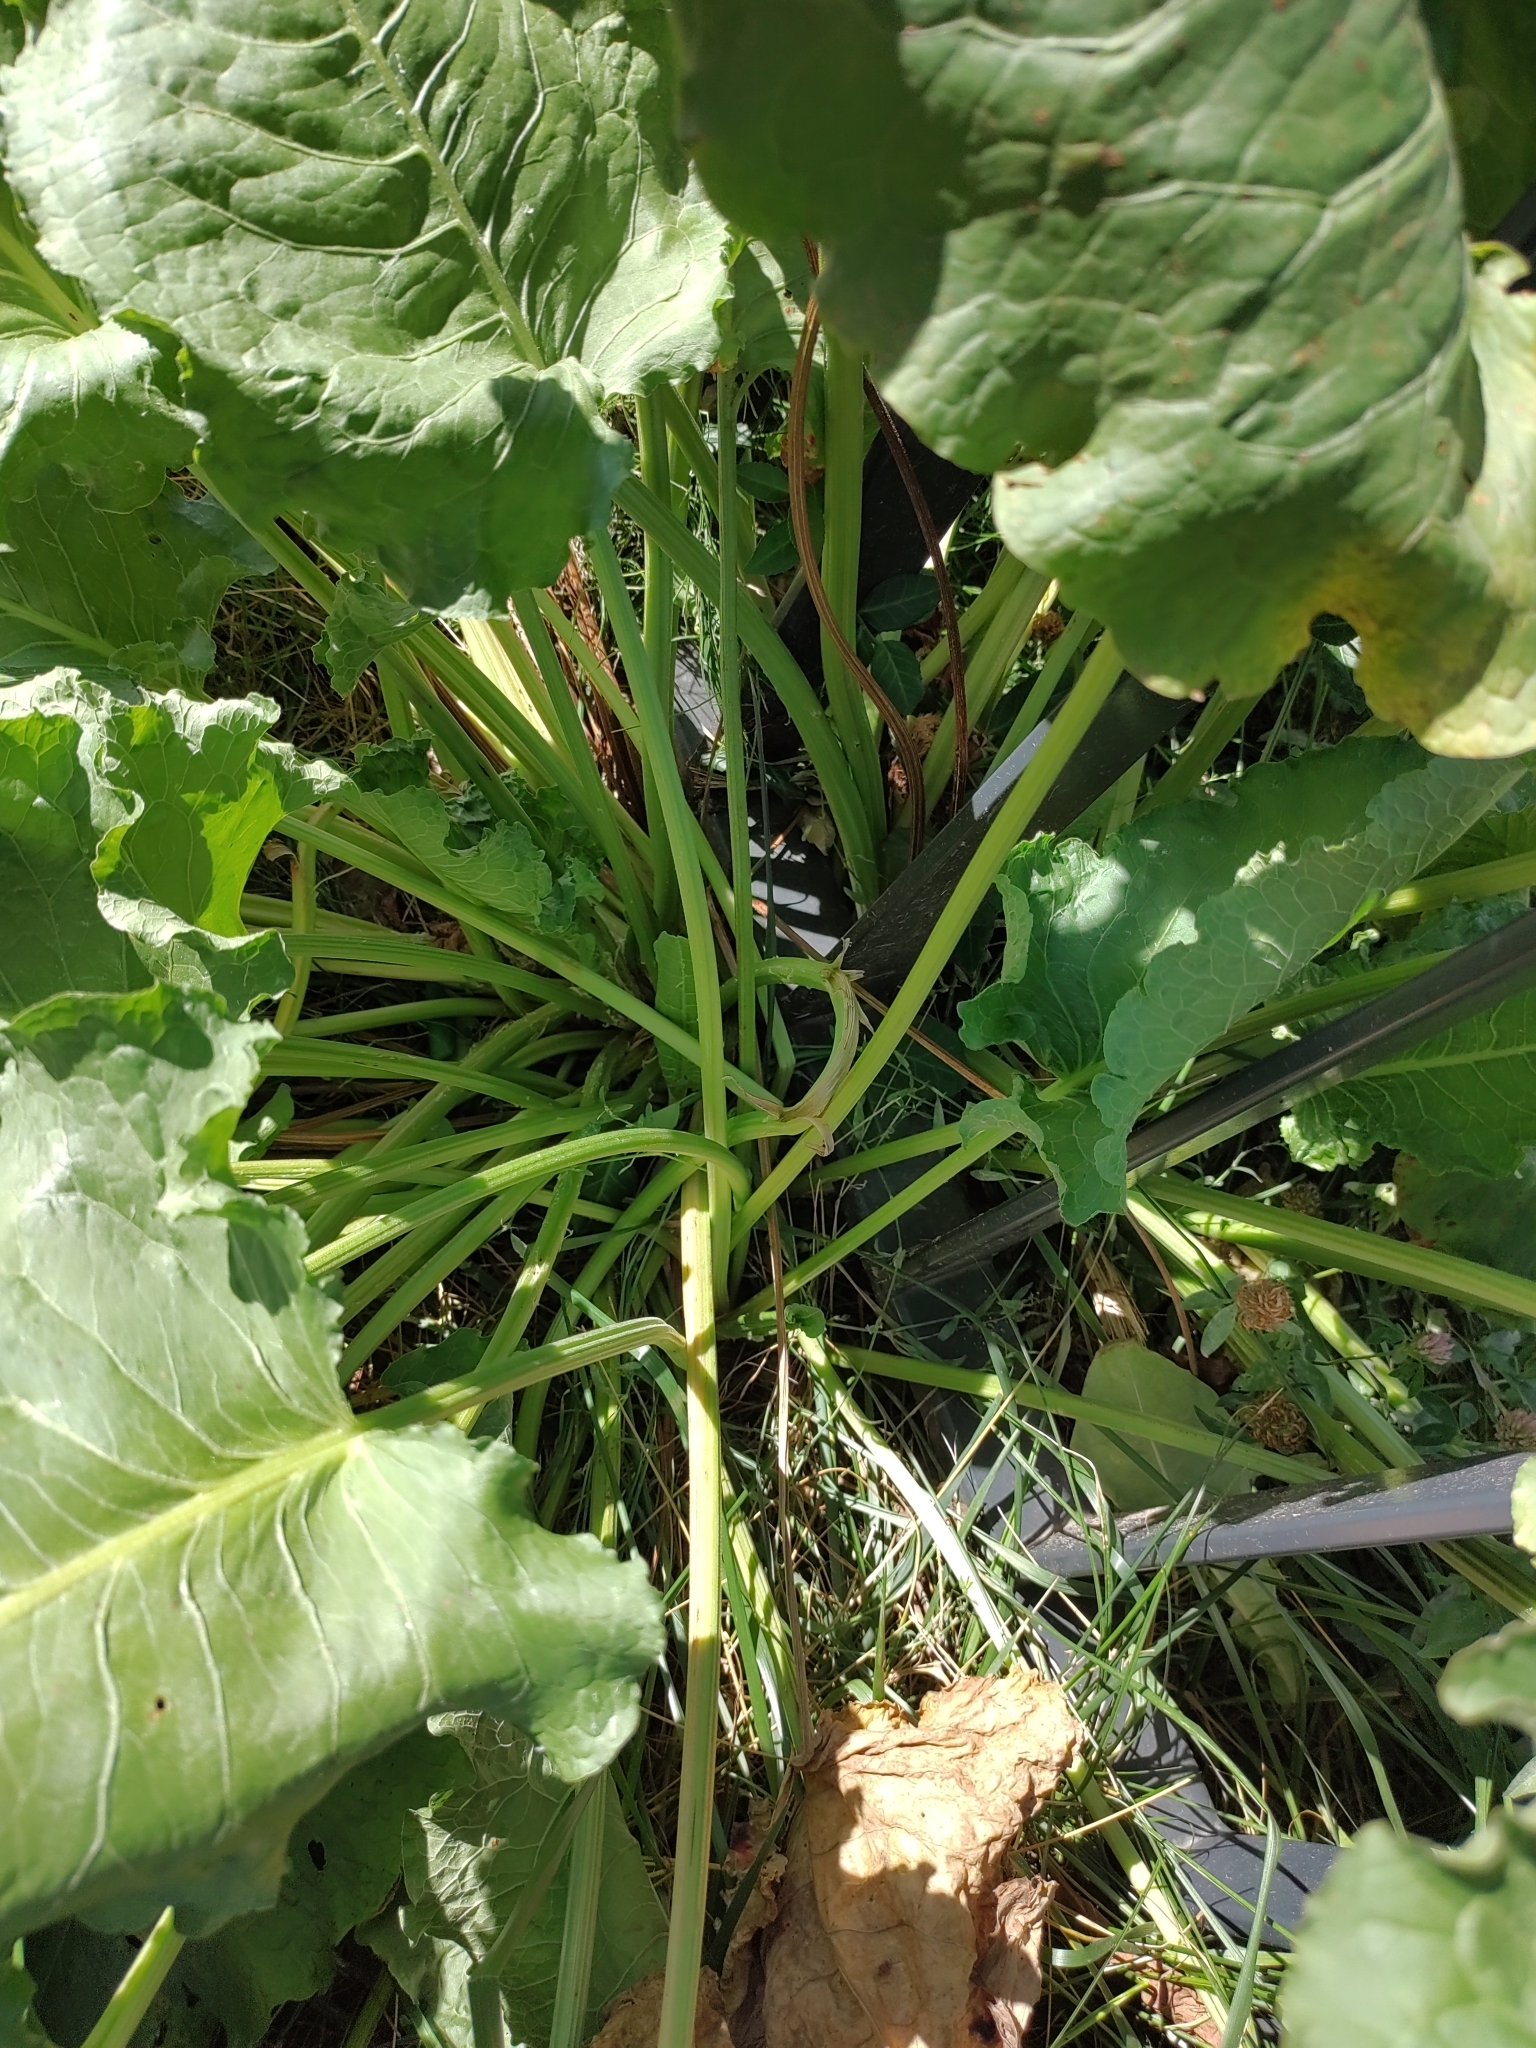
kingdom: Plantae
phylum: Tracheophyta
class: Magnoliopsida
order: Brassicales
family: Brassicaceae
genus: Armoracia
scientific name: Armoracia rusticana
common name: Horseradish
